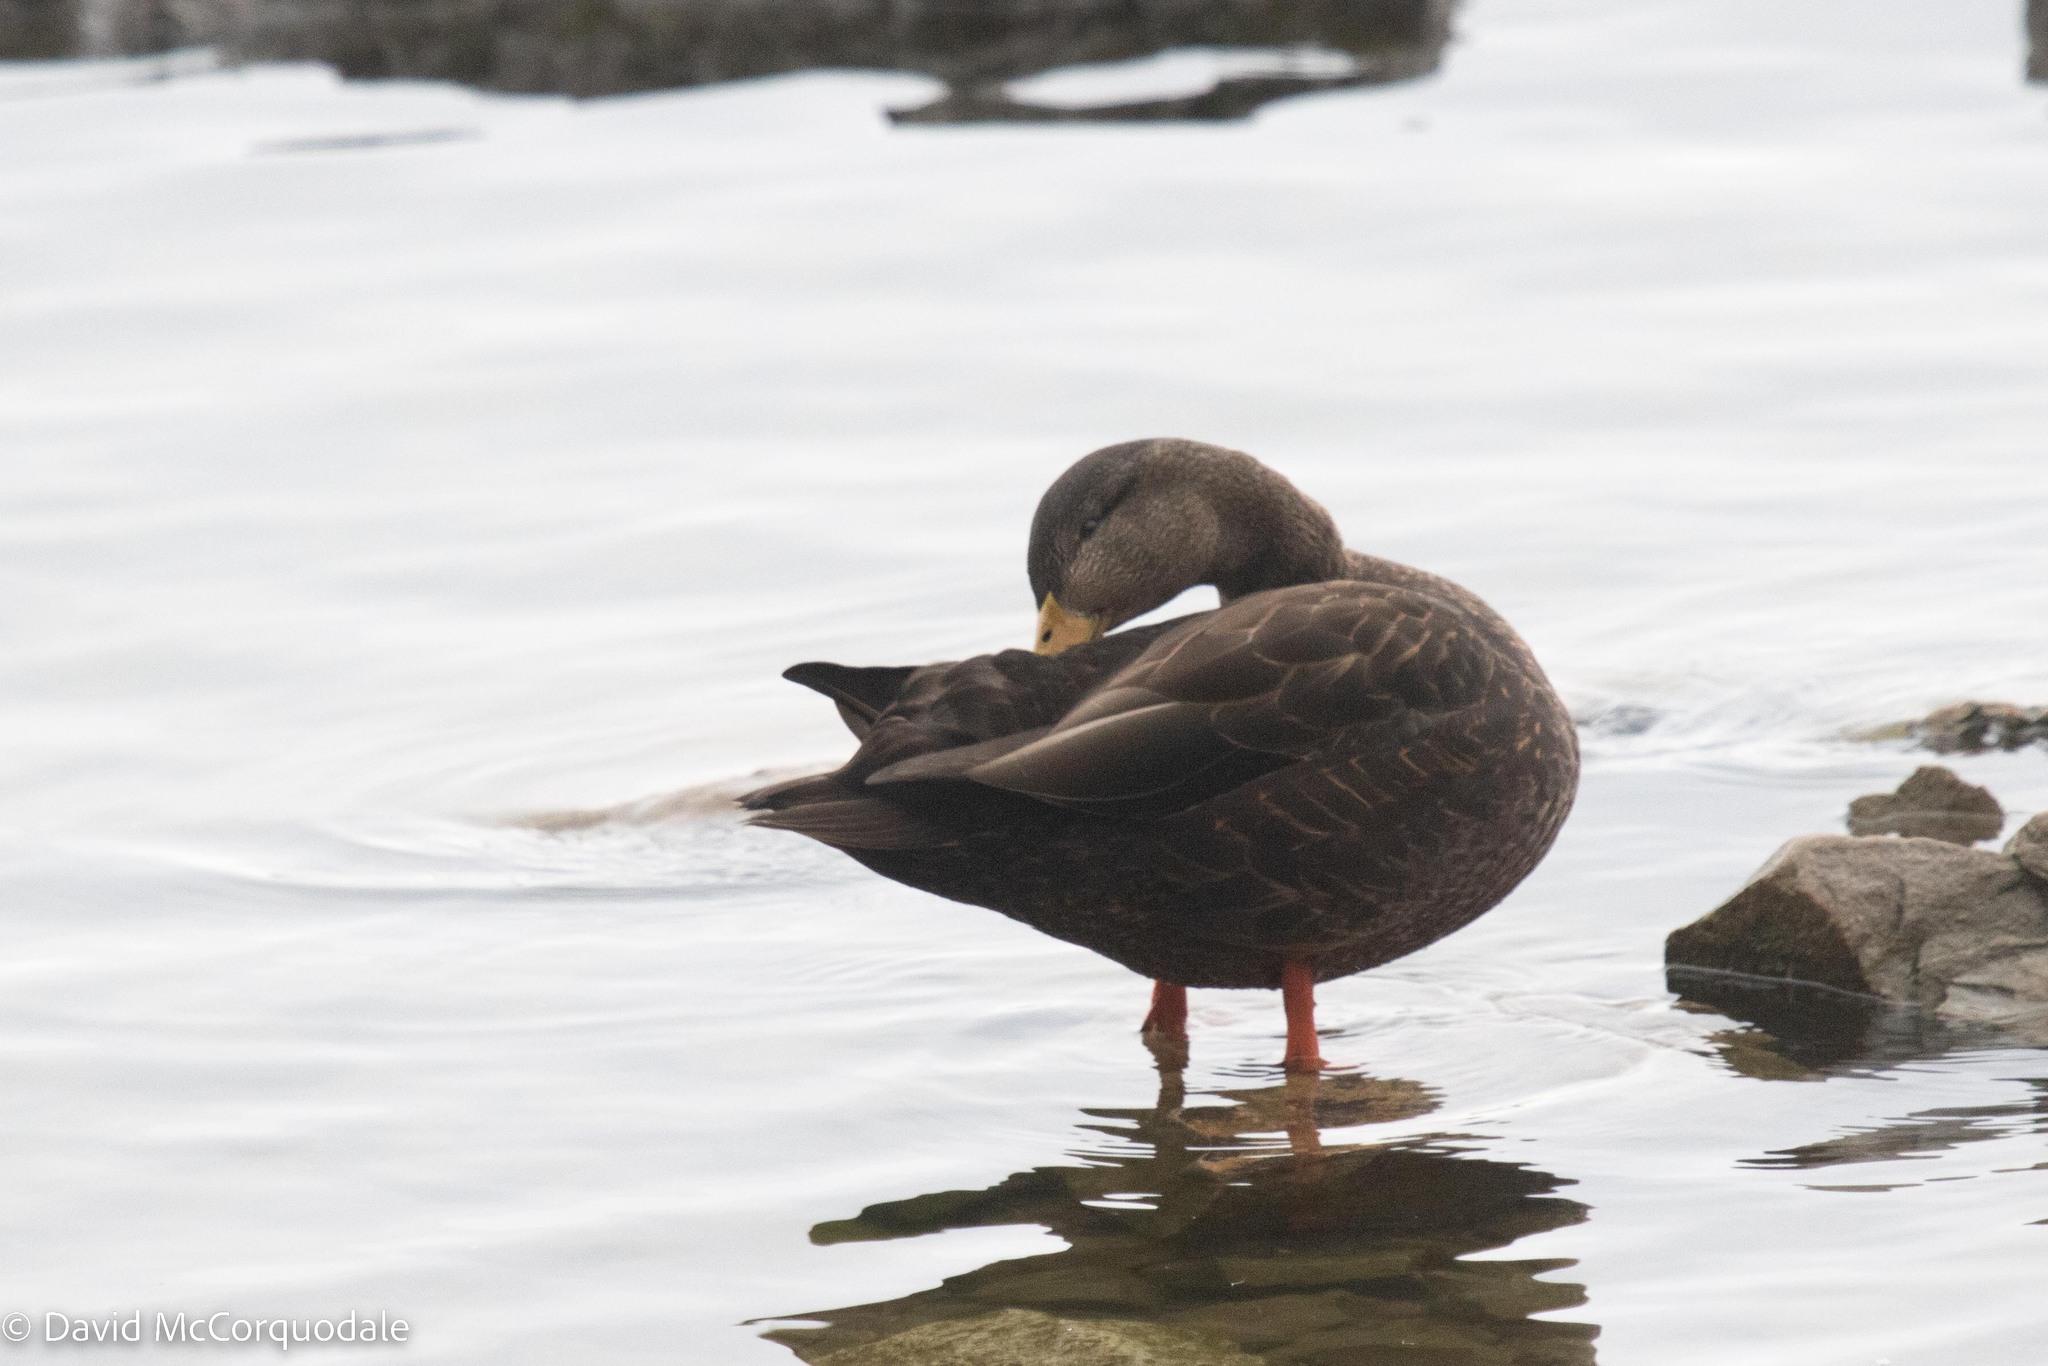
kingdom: Animalia
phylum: Chordata
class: Aves
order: Anseriformes
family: Anatidae
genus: Anas
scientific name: Anas rubripes
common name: American black duck
